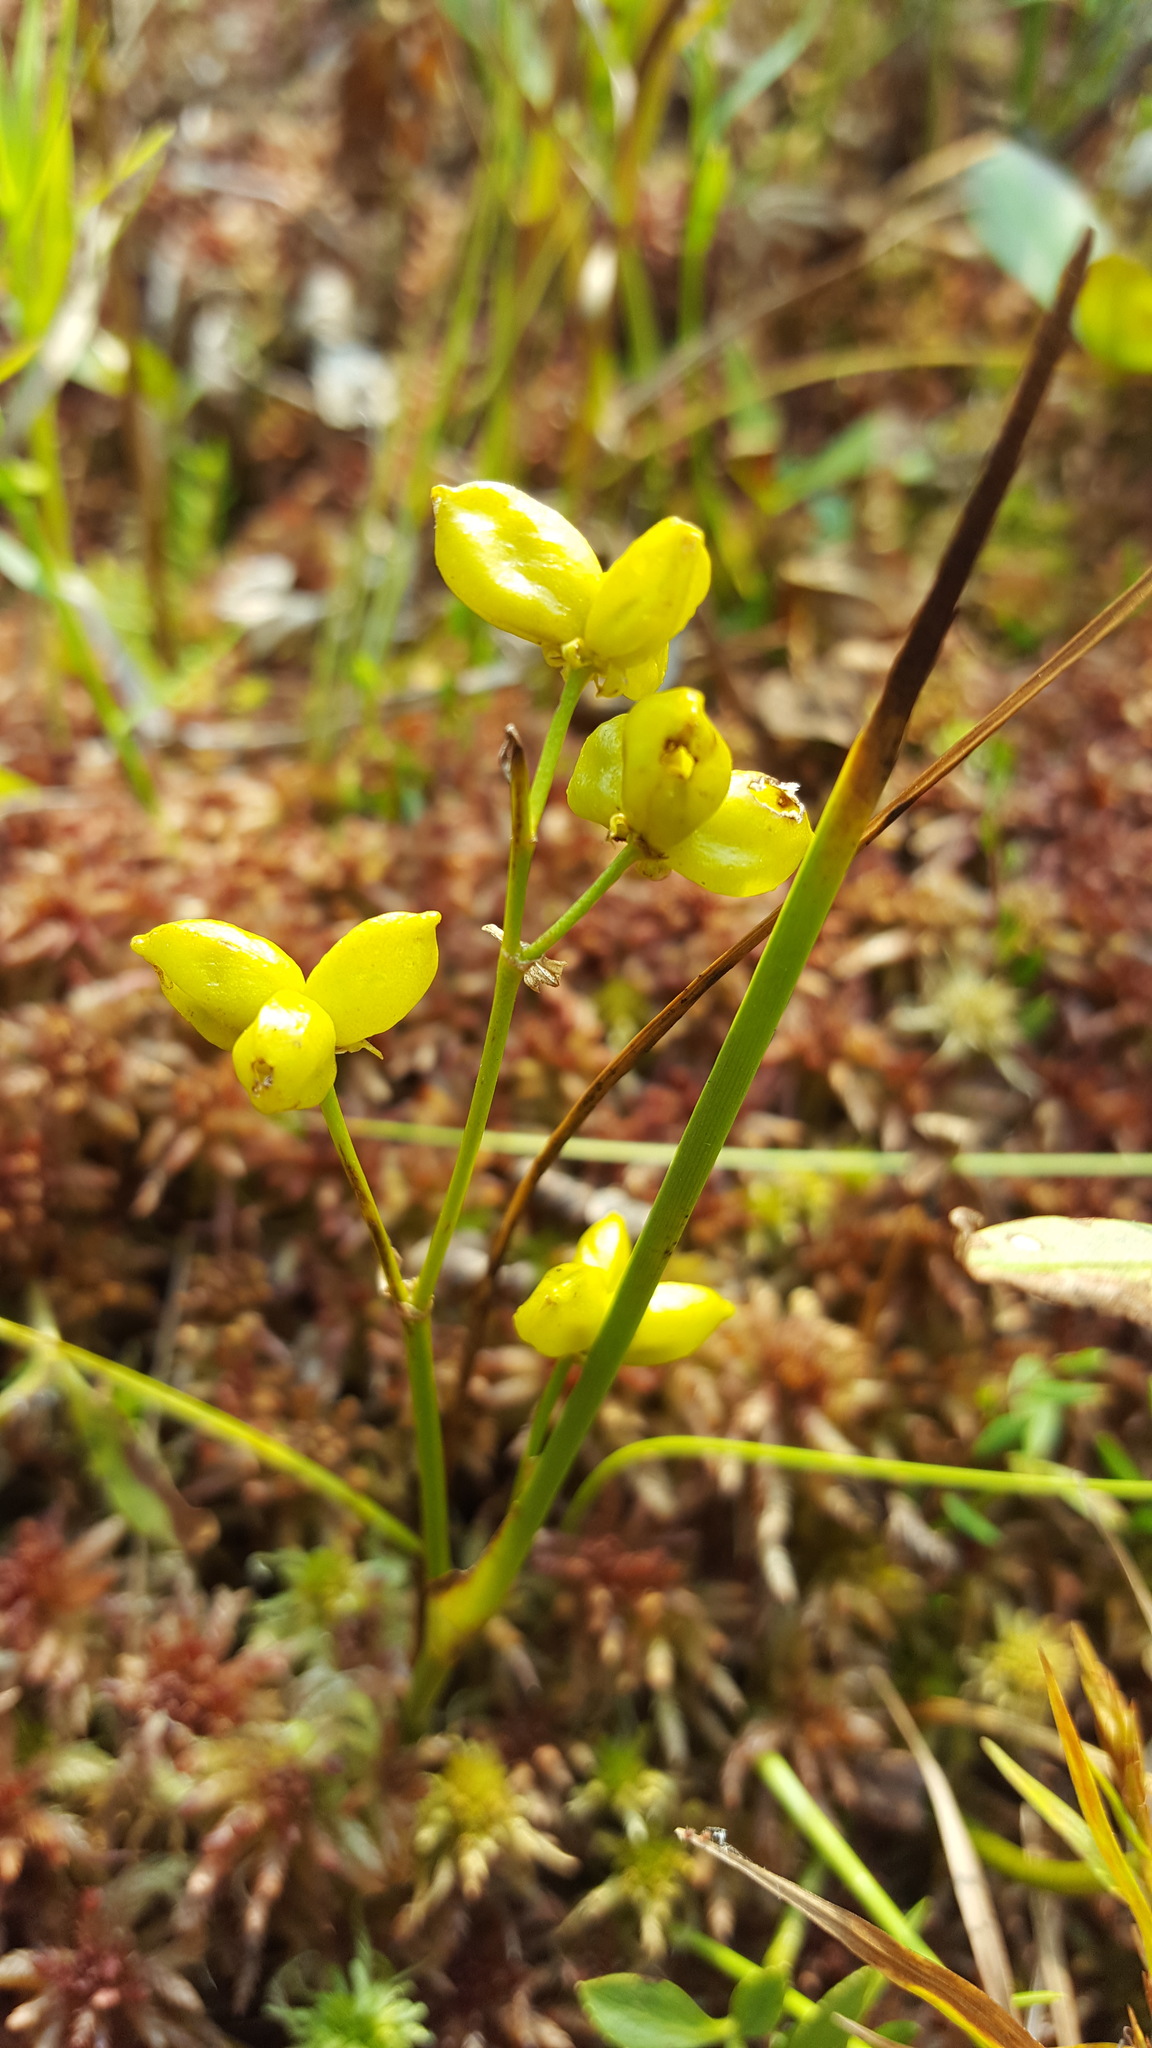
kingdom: Plantae
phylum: Tracheophyta
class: Liliopsida
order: Alismatales
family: Scheuchzeriaceae
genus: Scheuchzeria
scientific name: Scheuchzeria palustris
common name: Rannoch-rush
